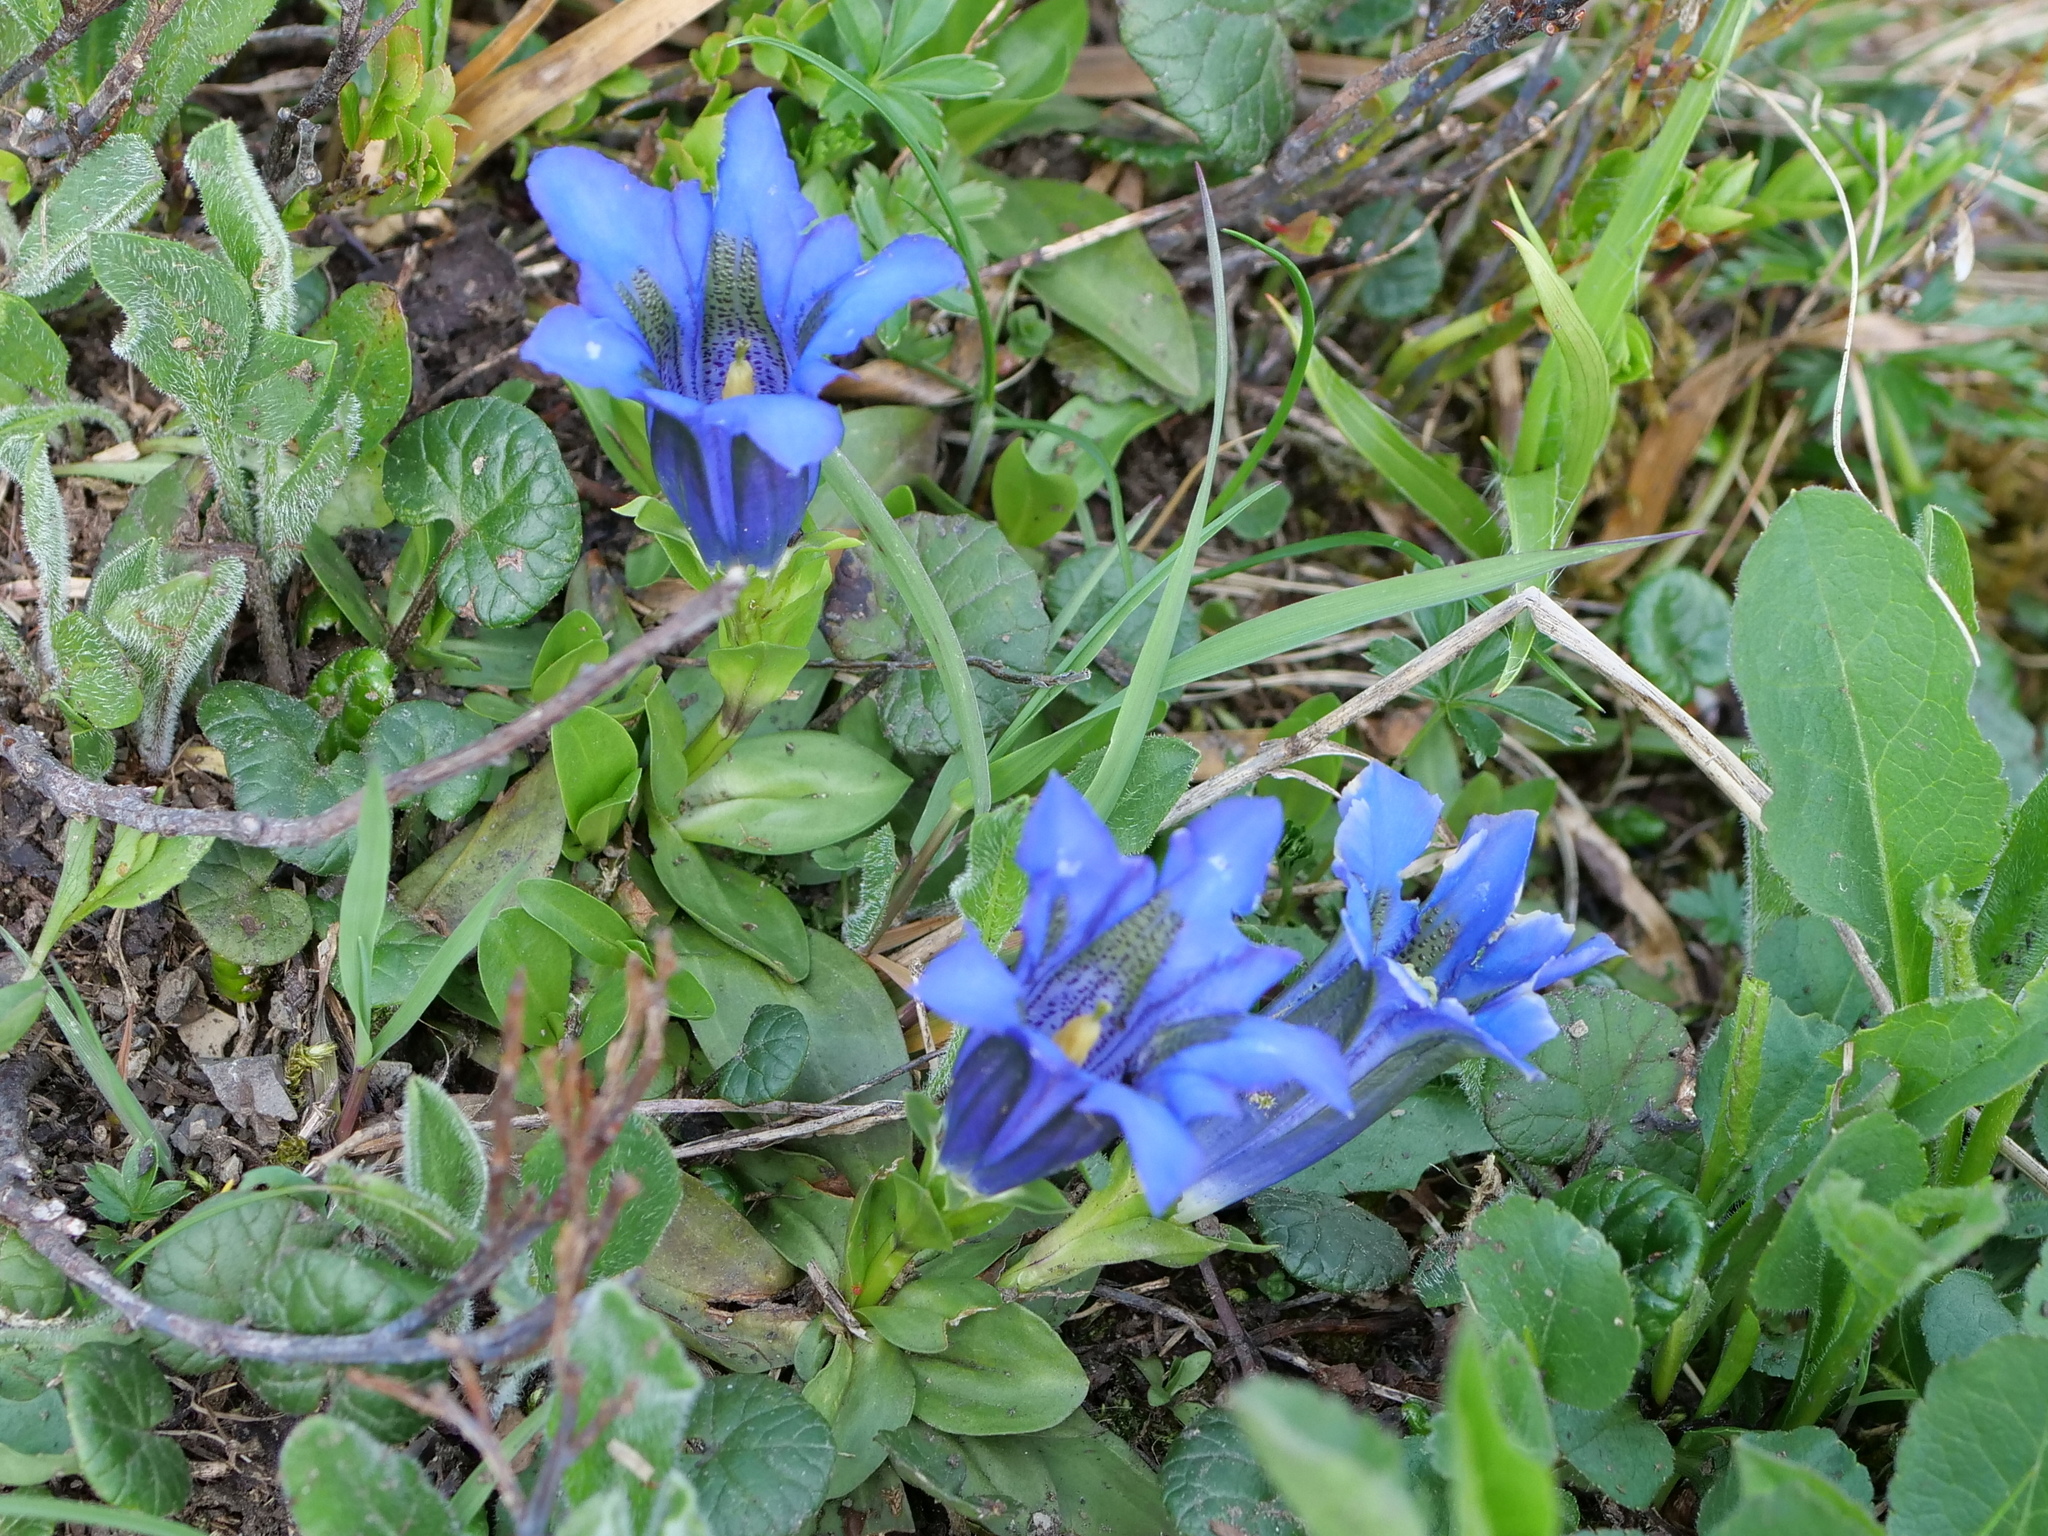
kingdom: Plantae
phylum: Tracheophyta
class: Magnoliopsida
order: Gentianales
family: Gentianaceae
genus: Gentiana
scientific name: Gentiana acaulis
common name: Trumpet gentian
